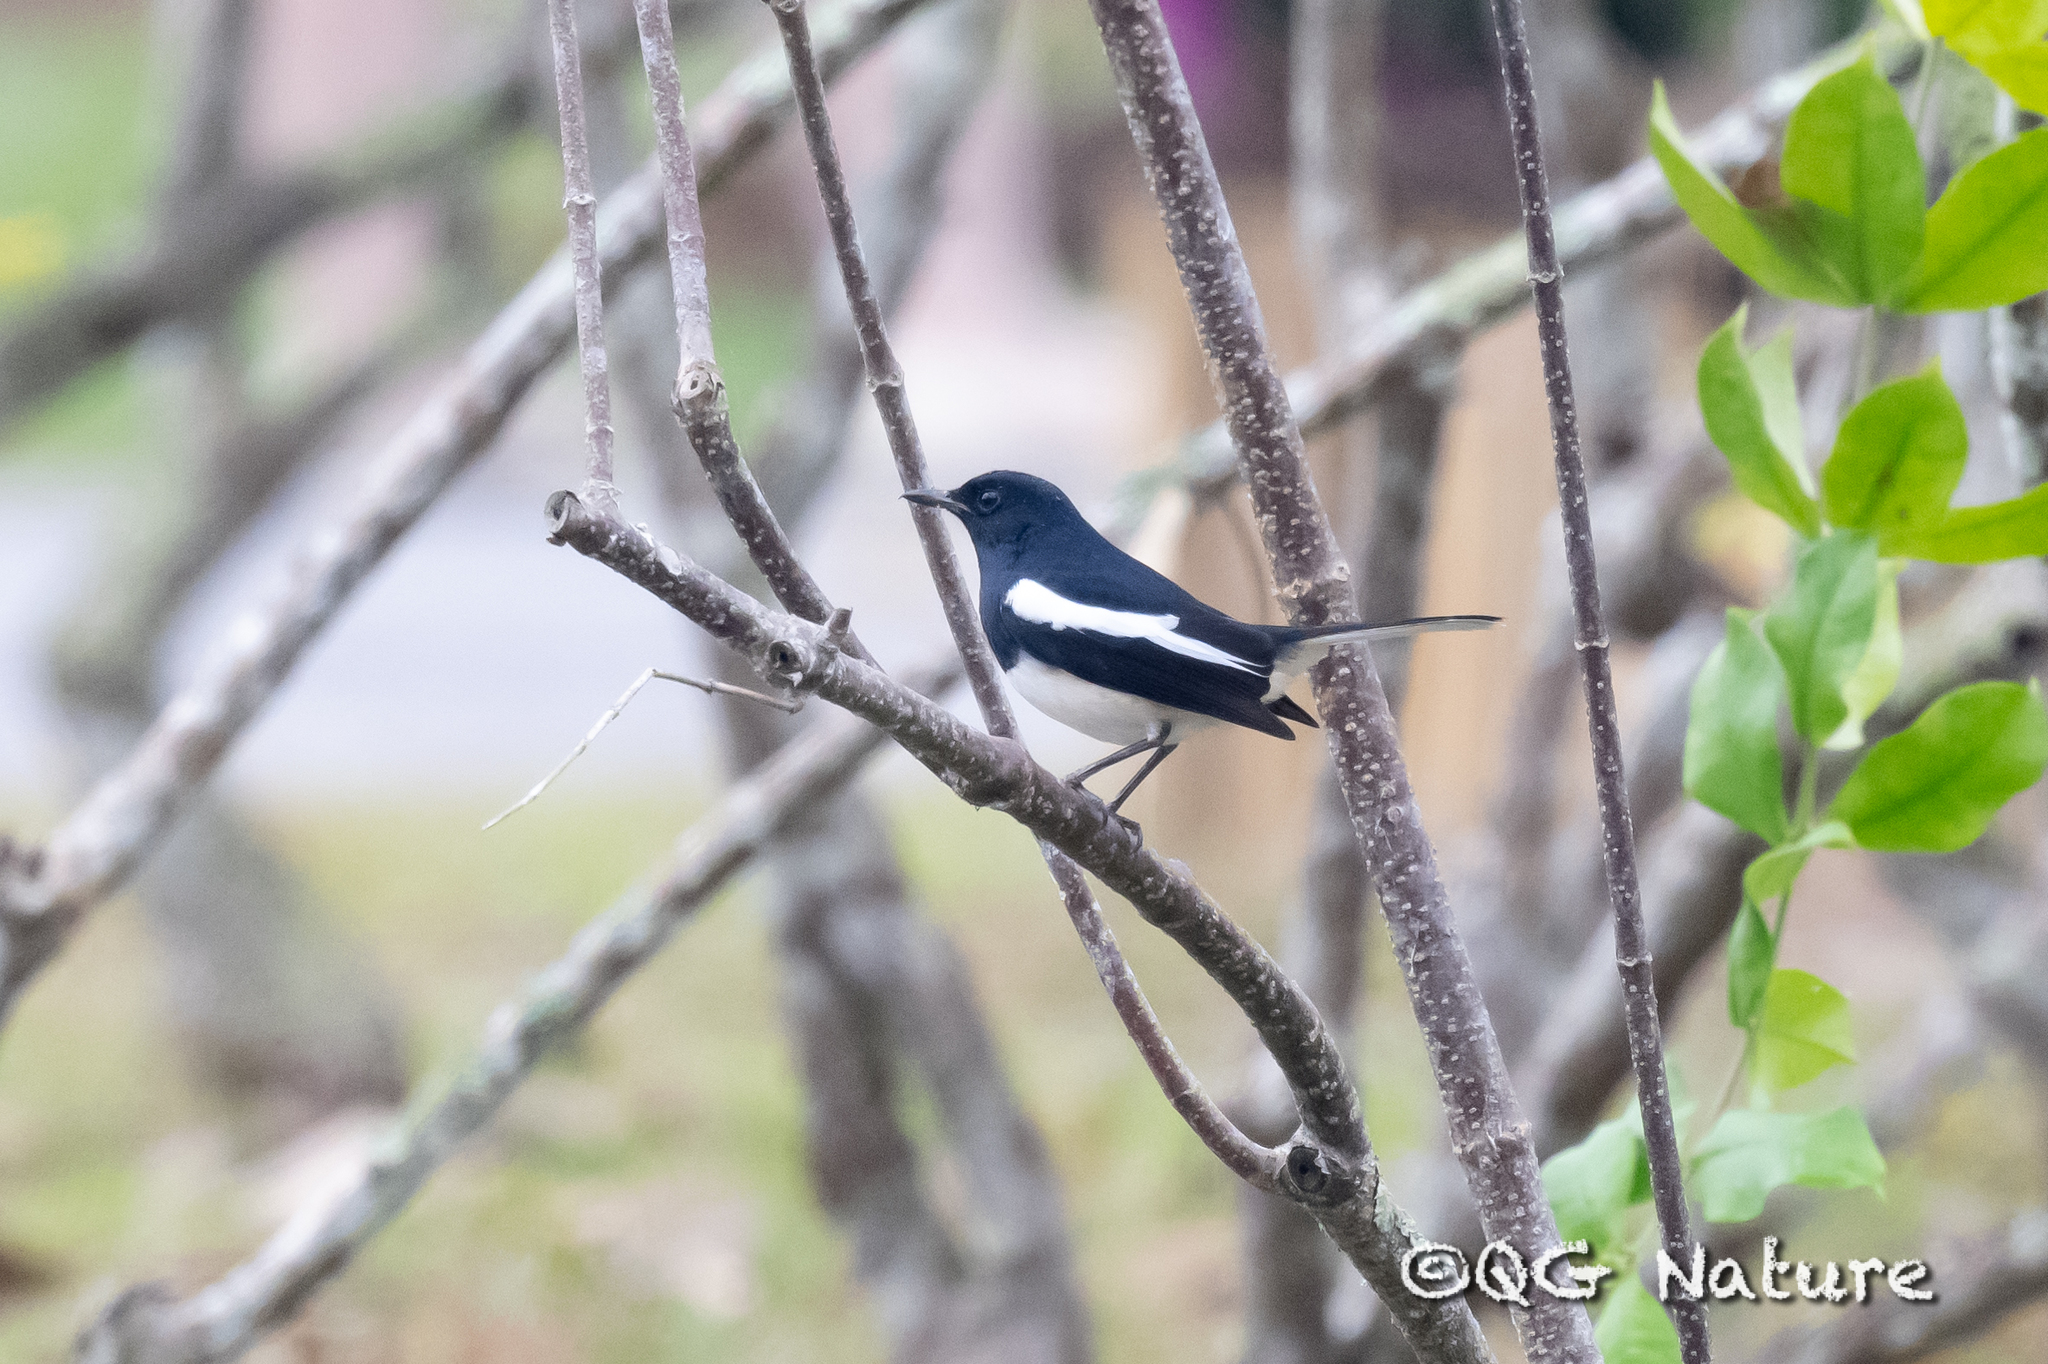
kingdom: Animalia
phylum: Chordata
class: Aves
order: Passeriformes
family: Muscicapidae
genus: Copsychus
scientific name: Copsychus saularis
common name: Oriental magpie-robin
